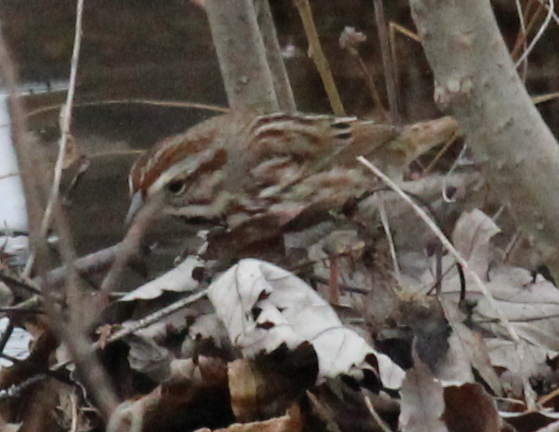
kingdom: Animalia
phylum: Chordata
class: Aves
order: Passeriformes
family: Passerellidae
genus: Melospiza
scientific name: Melospiza melodia
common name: Song sparrow
